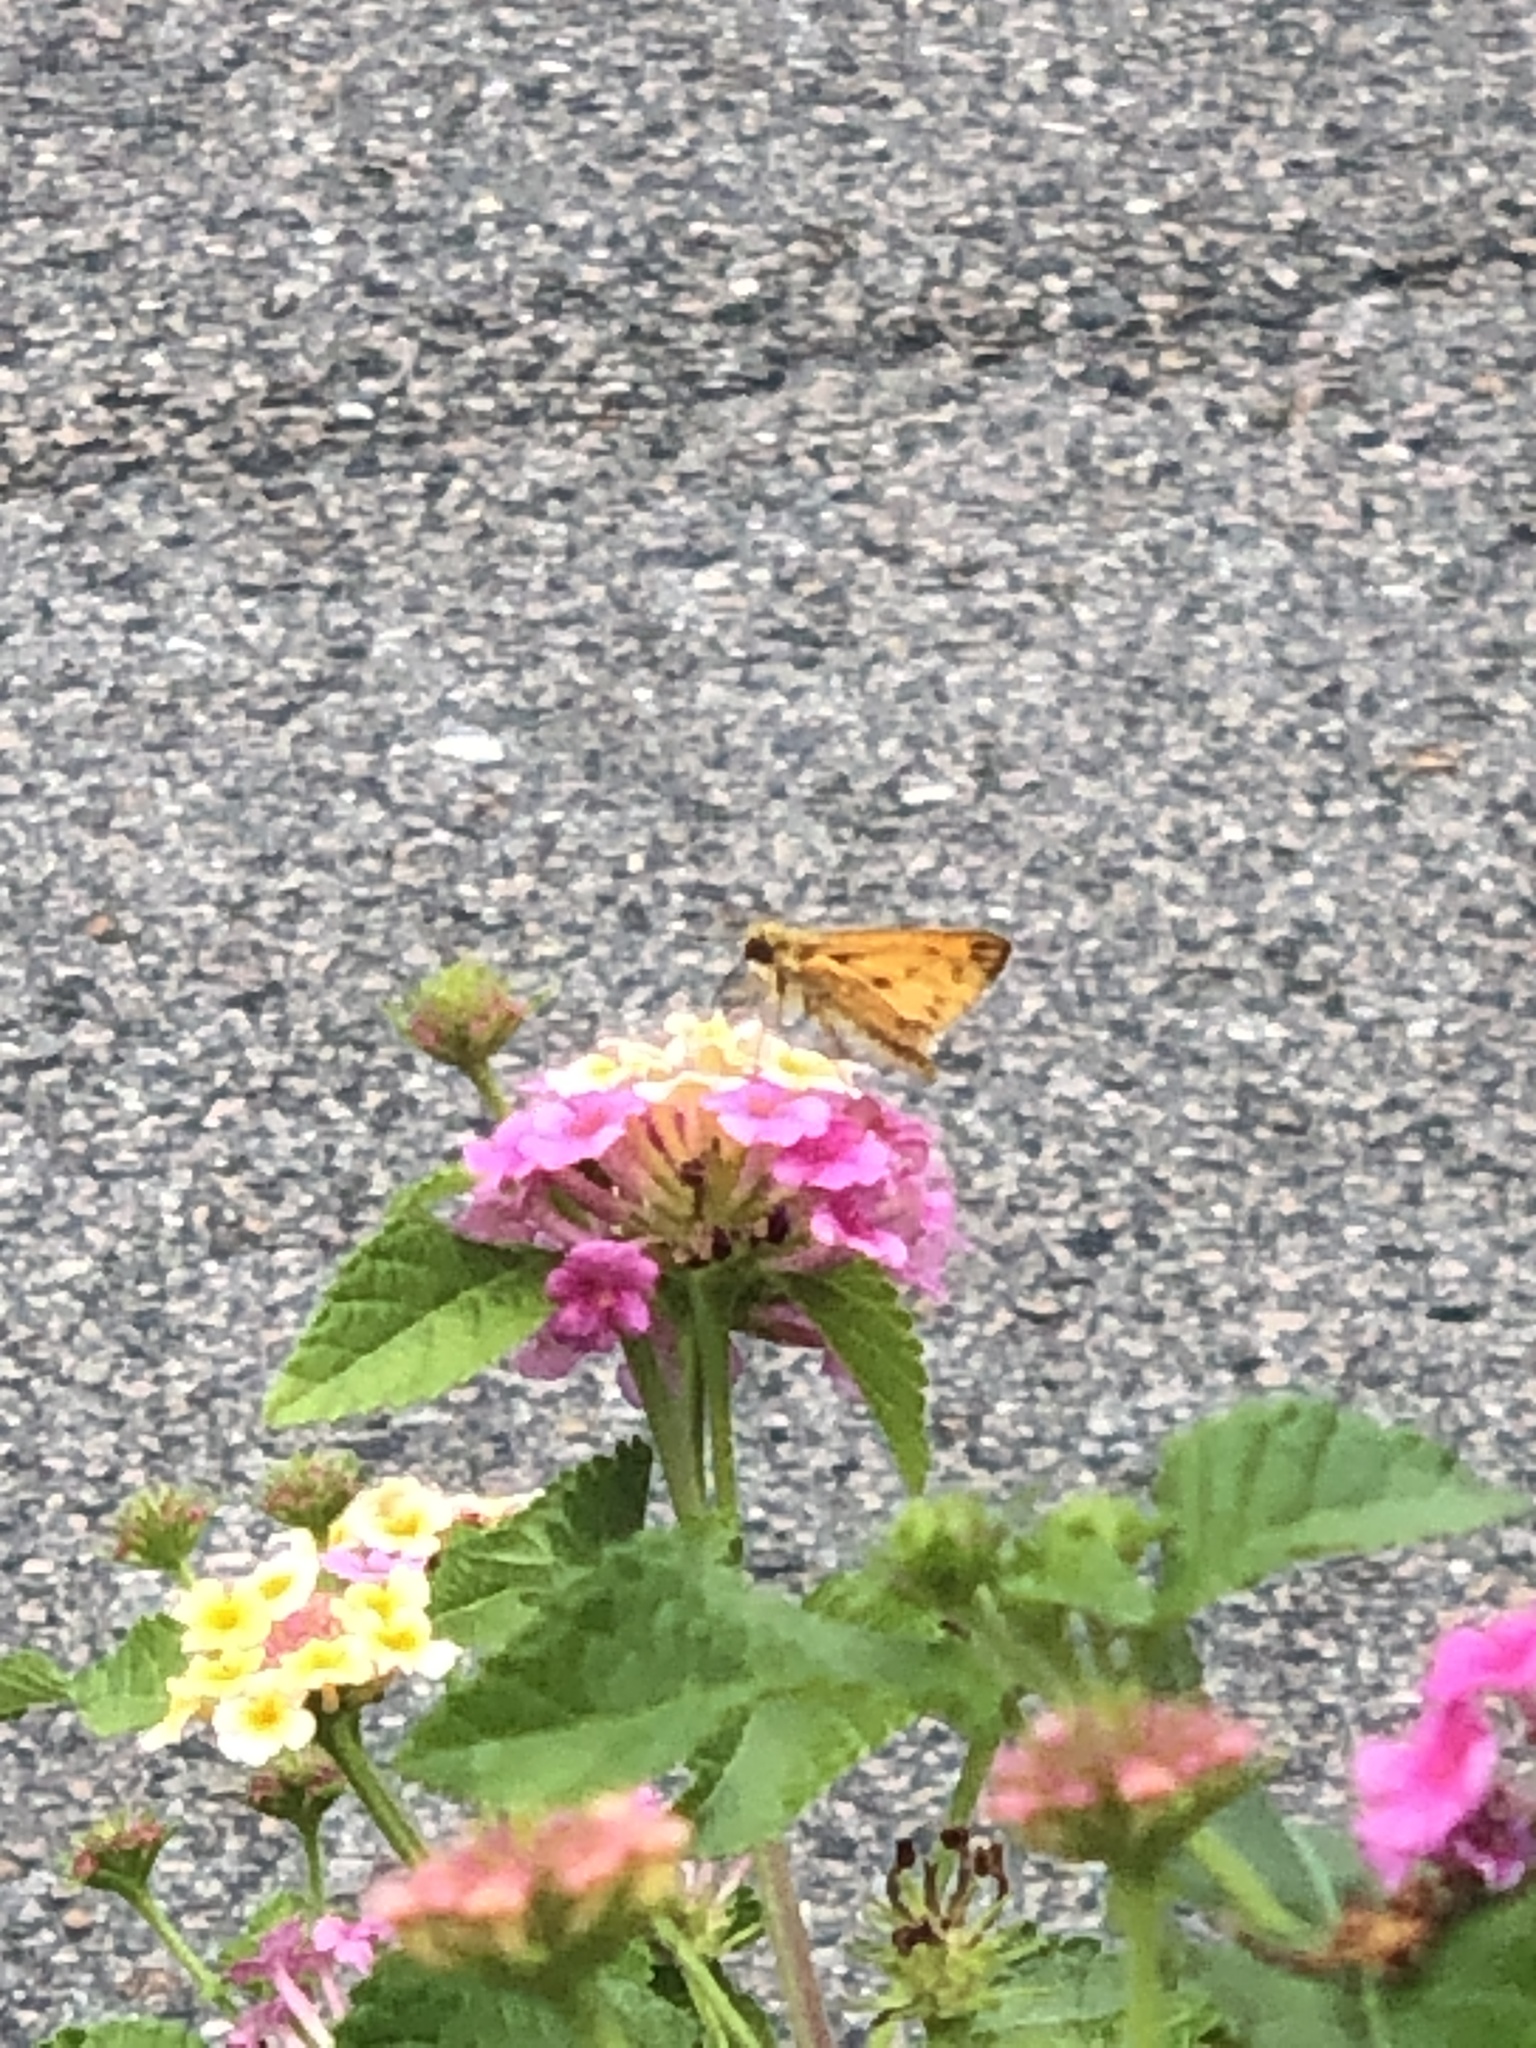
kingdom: Animalia
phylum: Arthropoda
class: Insecta
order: Lepidoptera
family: Hesperiidae
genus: Hylephila
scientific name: Hylephila phyleus
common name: Fiery skipper
